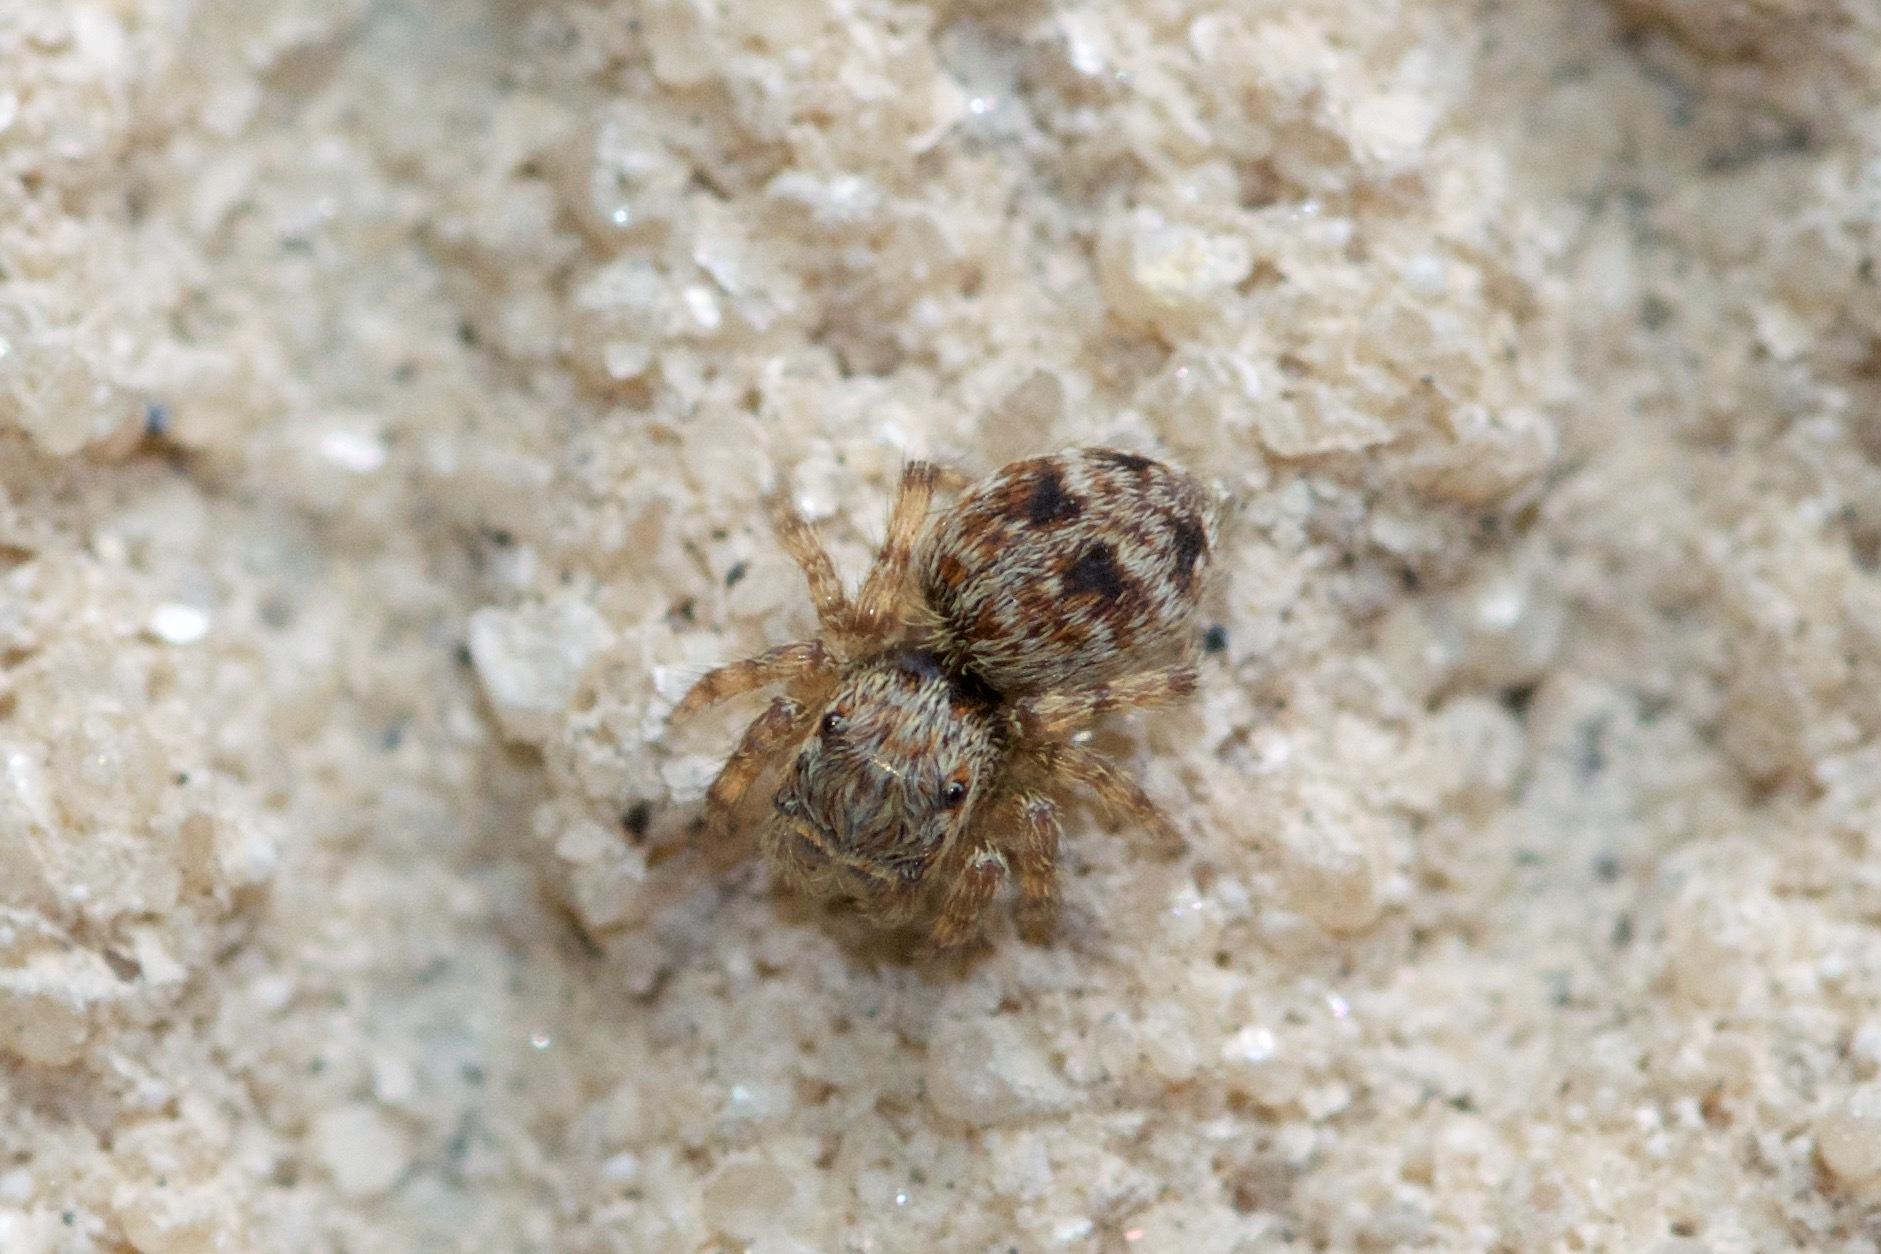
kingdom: Animalia
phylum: Arthropoda
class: Arachnida
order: Araneae
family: Salticidae
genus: Attulus
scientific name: Attulus fasciger
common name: Asiatic wall jumping spider
